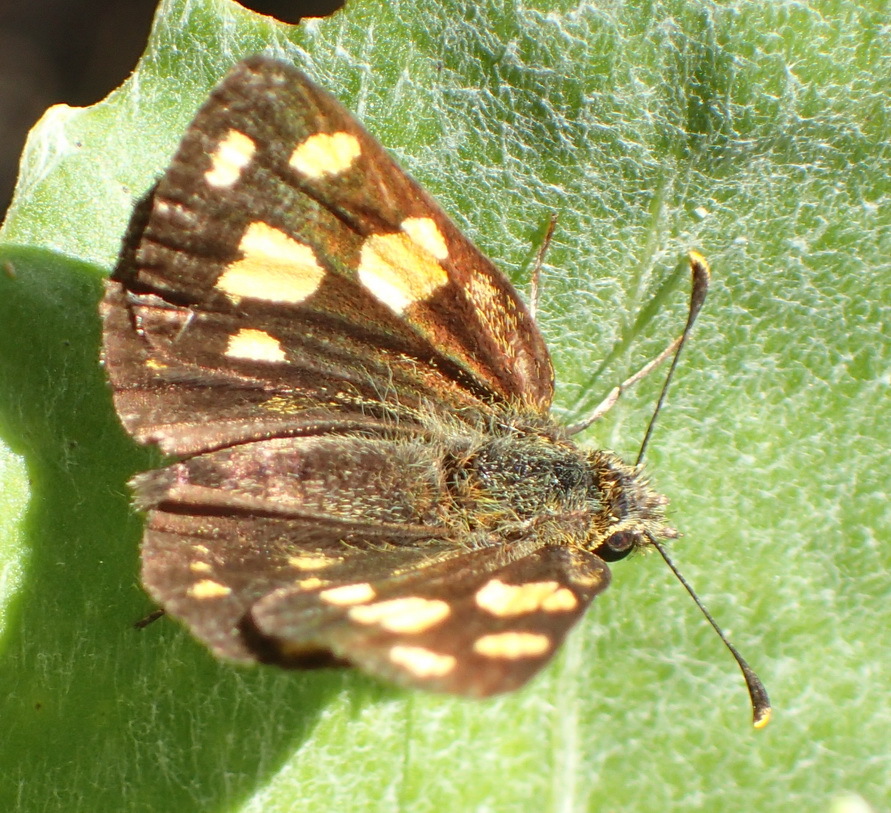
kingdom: Animalia
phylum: Arthropoda
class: Insecta
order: Lepidoptera
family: Hesperiidae
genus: Metisella
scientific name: Metisella metis
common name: Western gold-spotted sylph
